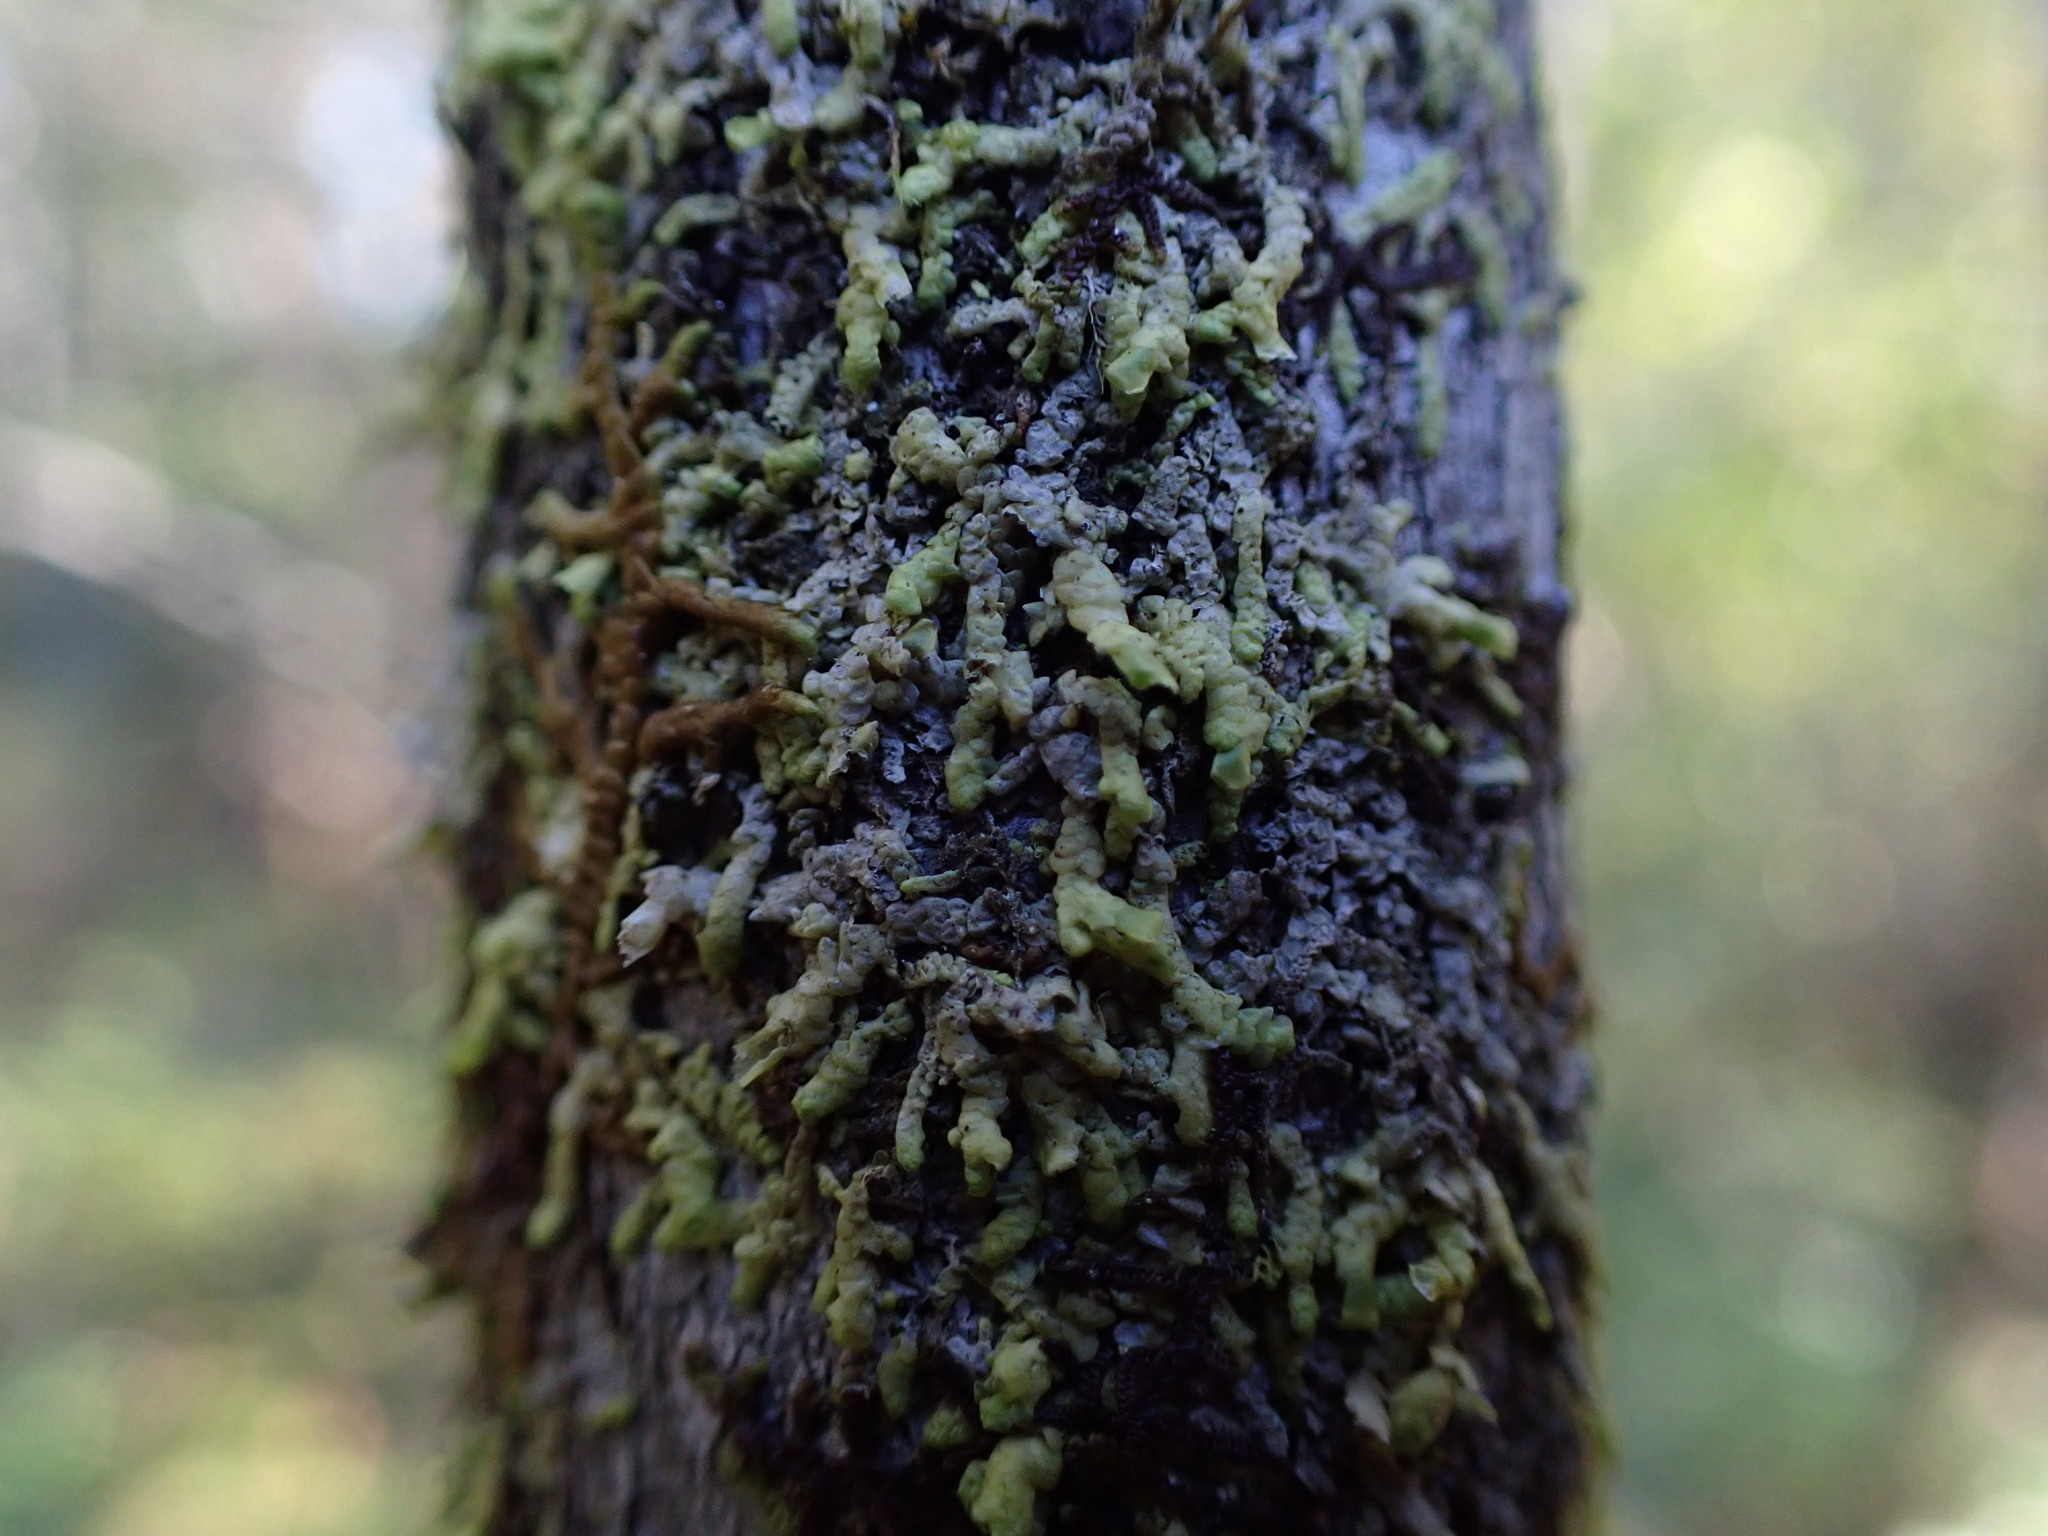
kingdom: Plantae
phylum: Marchantiophyta
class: Jungermanniopsida
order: Porellales
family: Radulaceae
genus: Radula
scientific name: Radula complanata
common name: Flat-leaved scalewort
